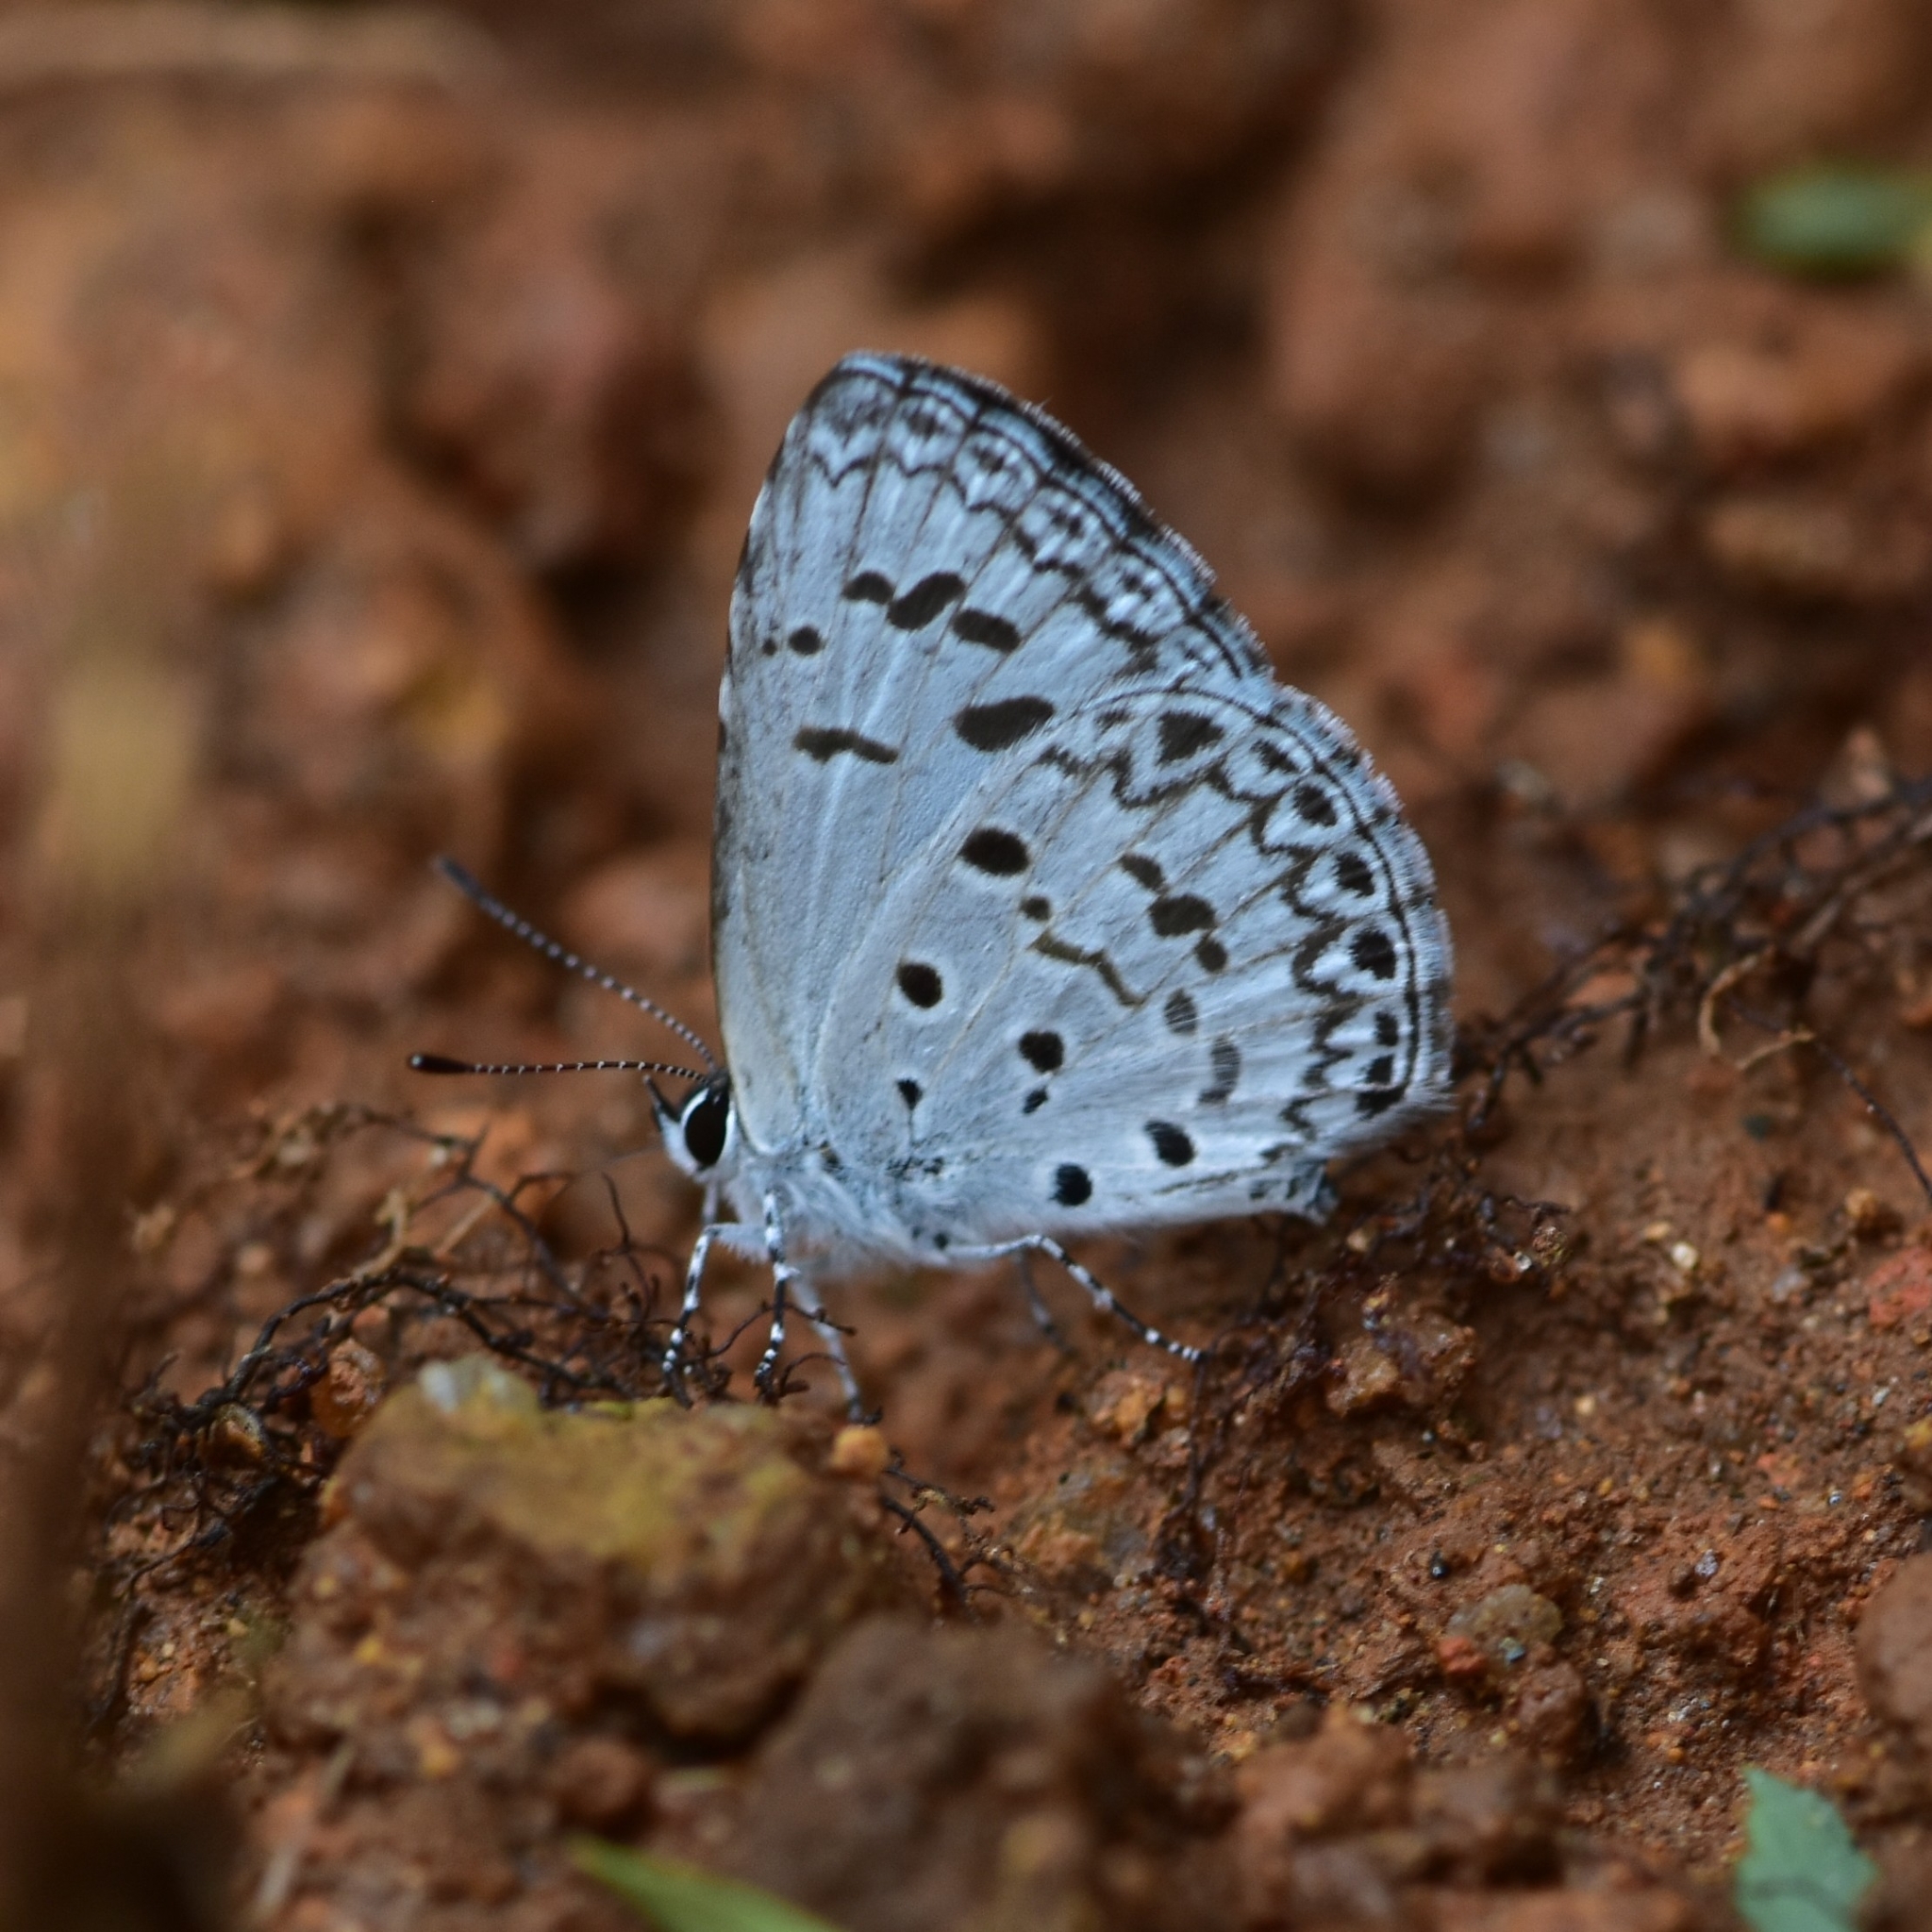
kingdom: Animalia
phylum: Arthropoda
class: Insecta
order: Lepidoptera
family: Lycaenidae
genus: Acytolepis
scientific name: Acytolepis puspa
